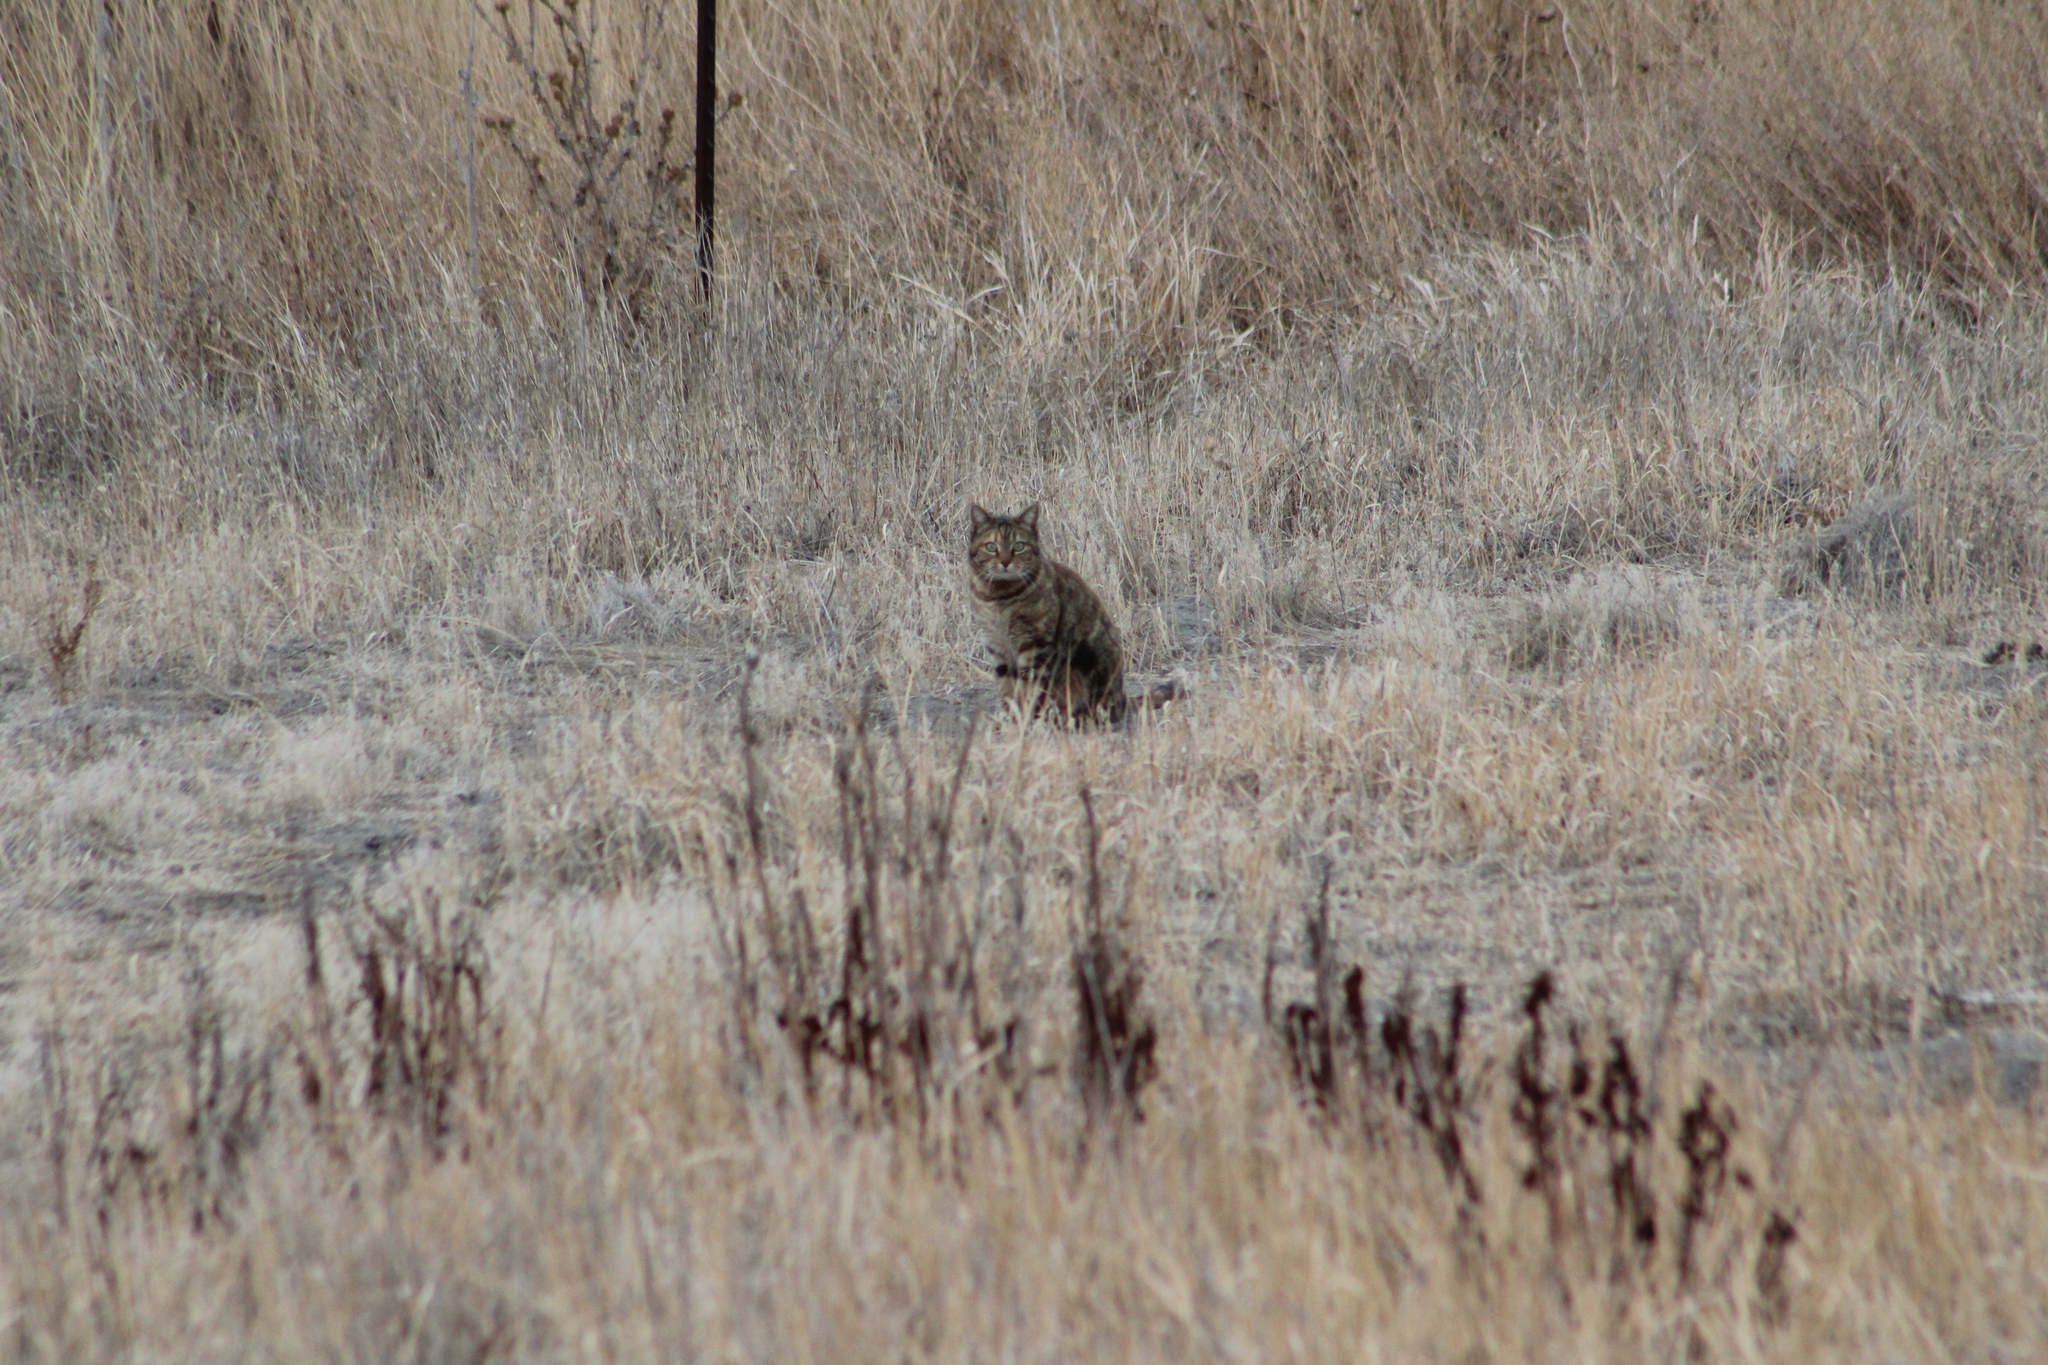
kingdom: Animalia
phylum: Chordata
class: Mammalia
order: Carnivora
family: Felidae
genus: Felis
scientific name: Felis catus
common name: Domestic cat
